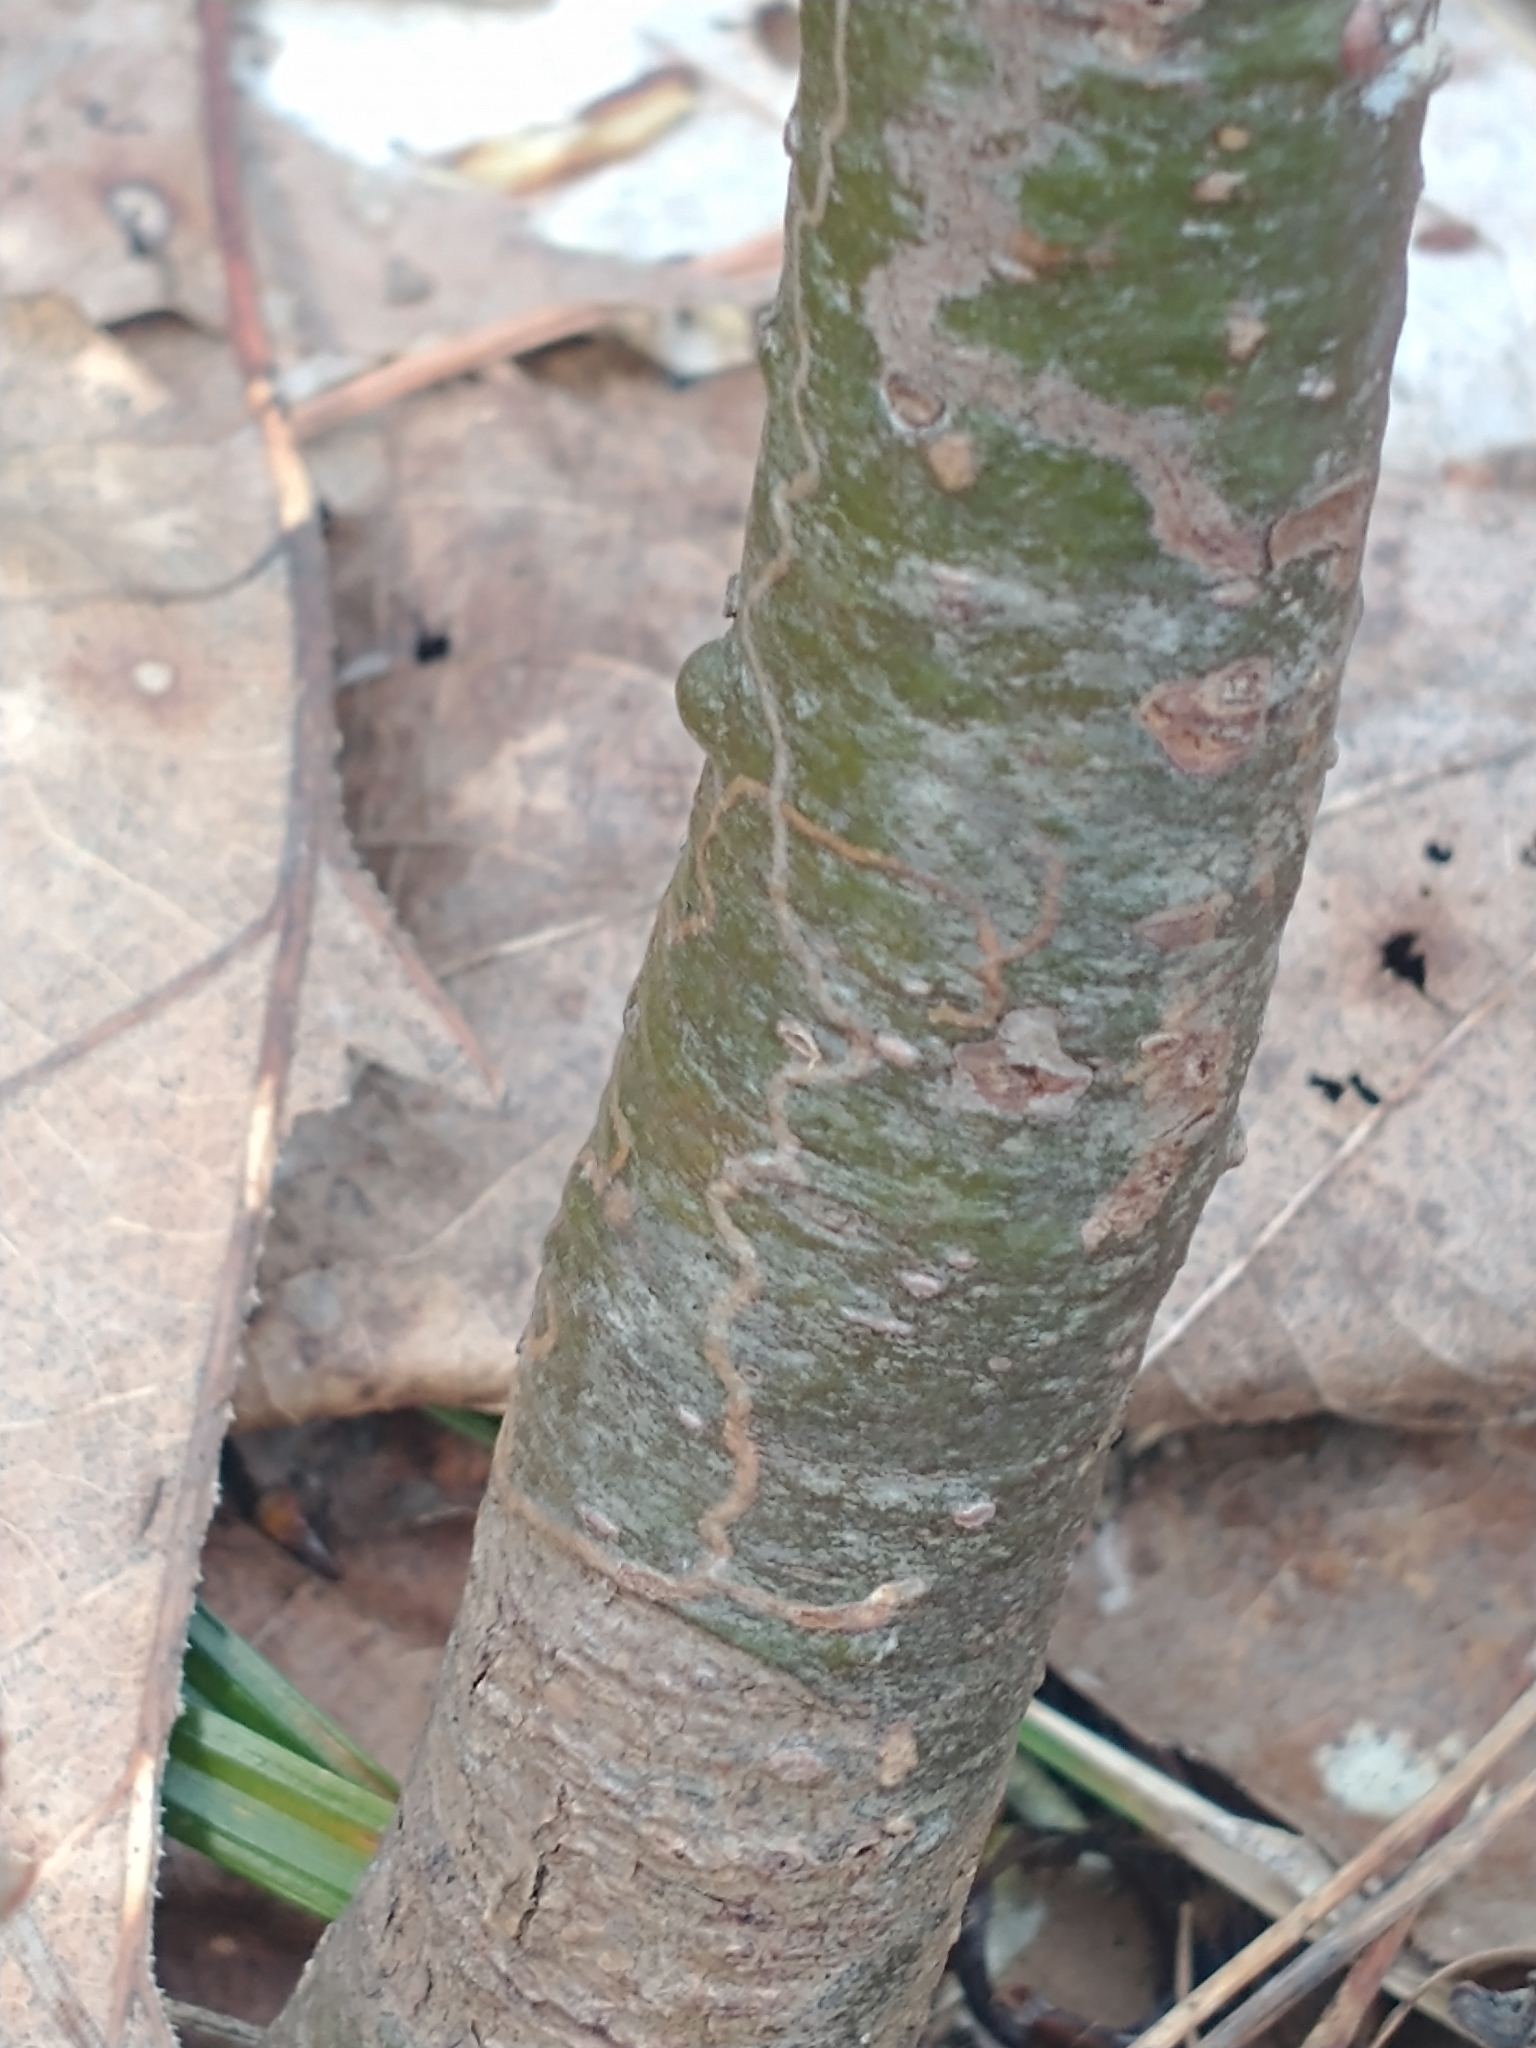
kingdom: Animalia
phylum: Arthropoda
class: Insecta
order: Lepidoptera
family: Gracillariidae
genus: Marmara
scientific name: Marmara fasciella
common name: White pine barkminer moth
